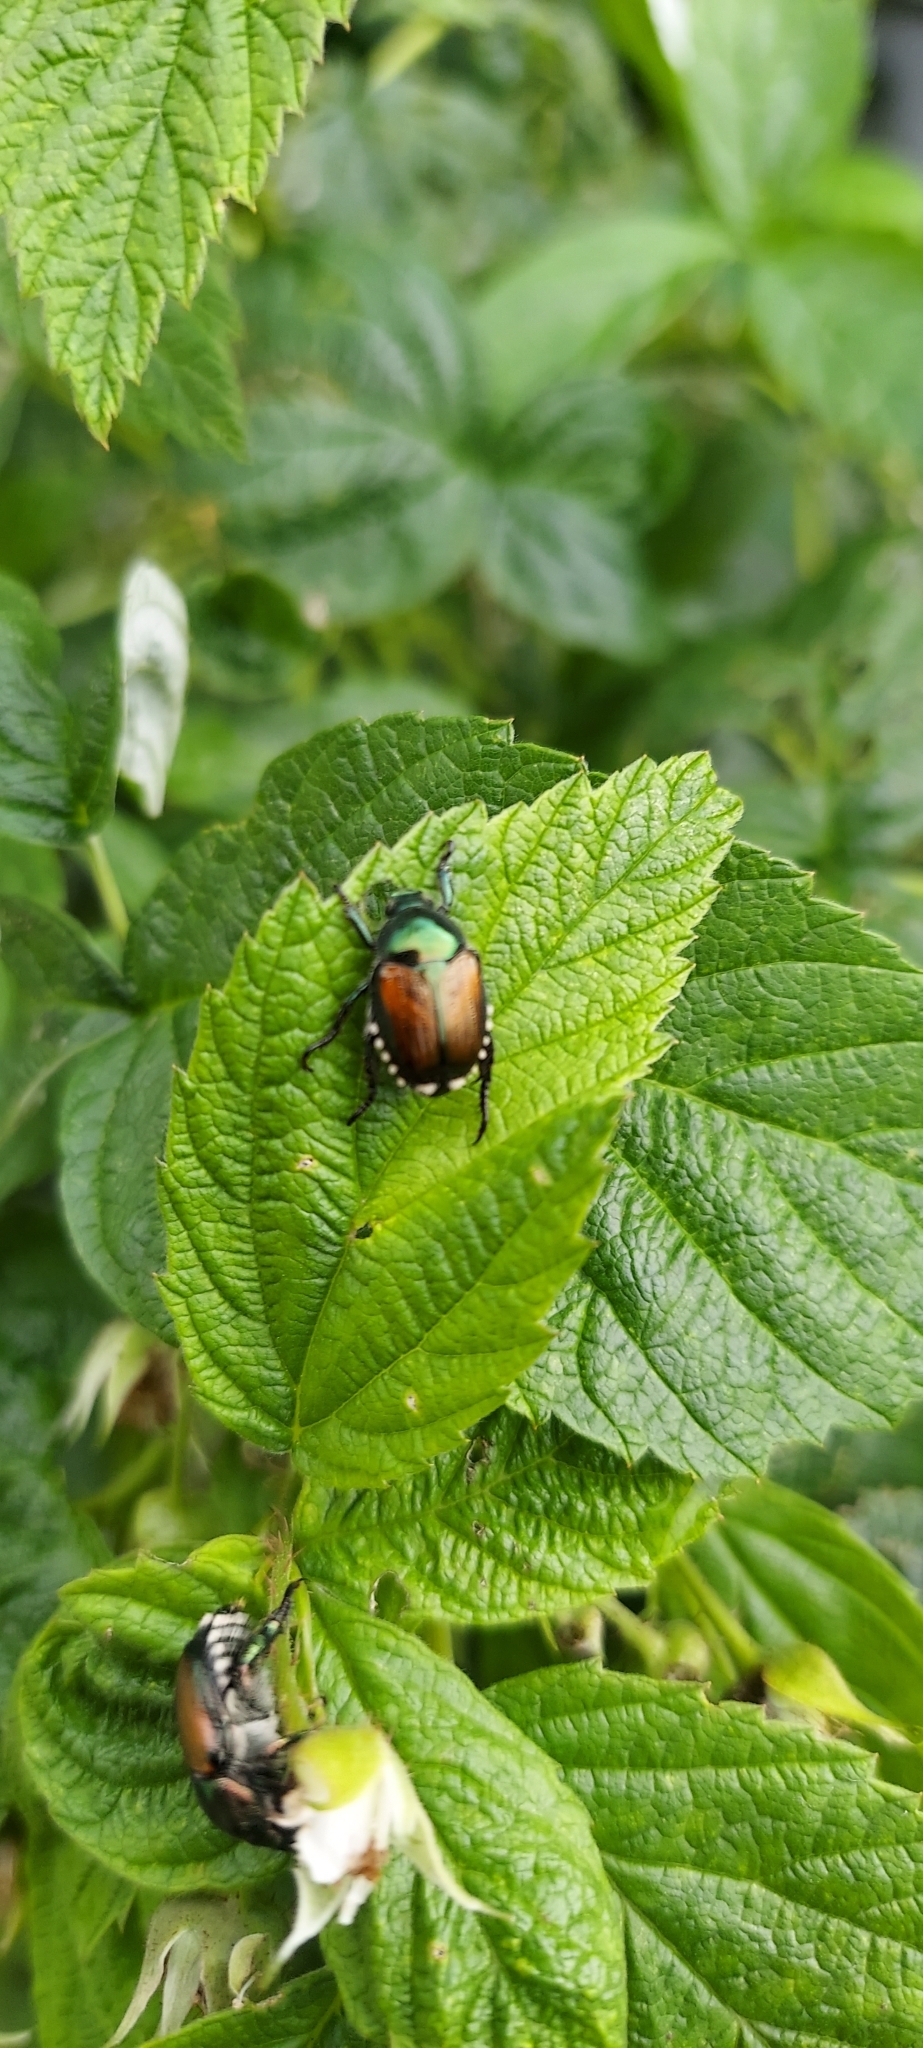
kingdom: Animalia
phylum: Arthropoda
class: Insecta
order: Coleoptera
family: Scarabaeidae
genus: Popillia
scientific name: Popillia japonica
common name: Japanese beetle
